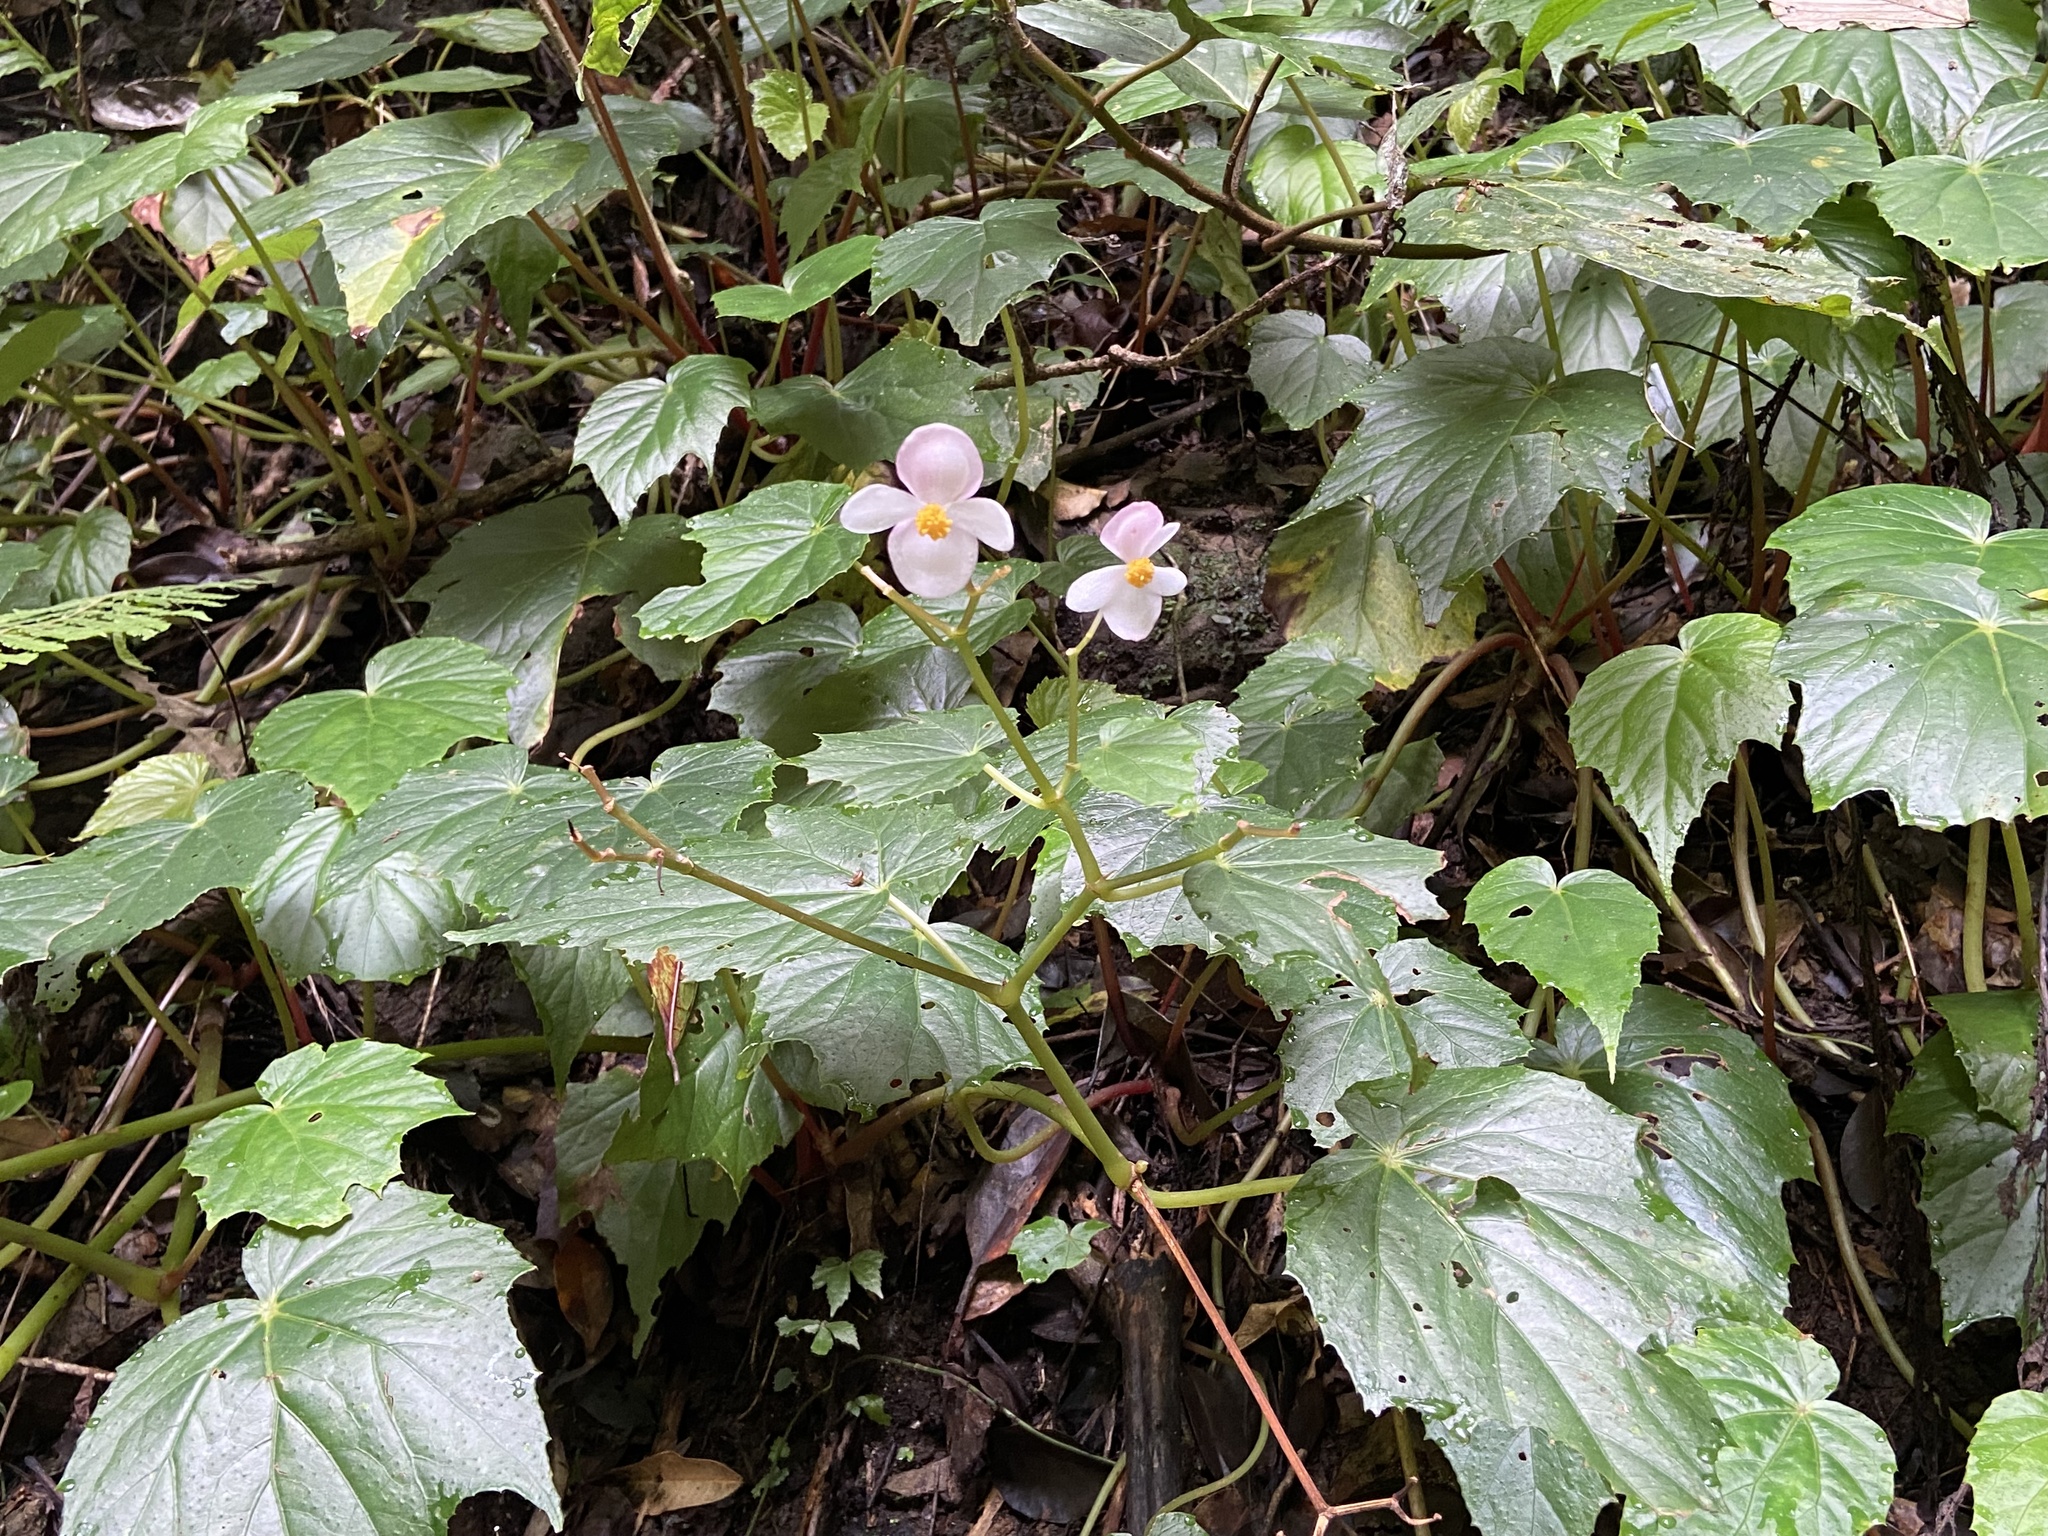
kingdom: Plantae
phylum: Tracheophyta
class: Magnoliopsida
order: Cucurbitales
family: Begoniaceae
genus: Begonia
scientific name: Begonia formosana
